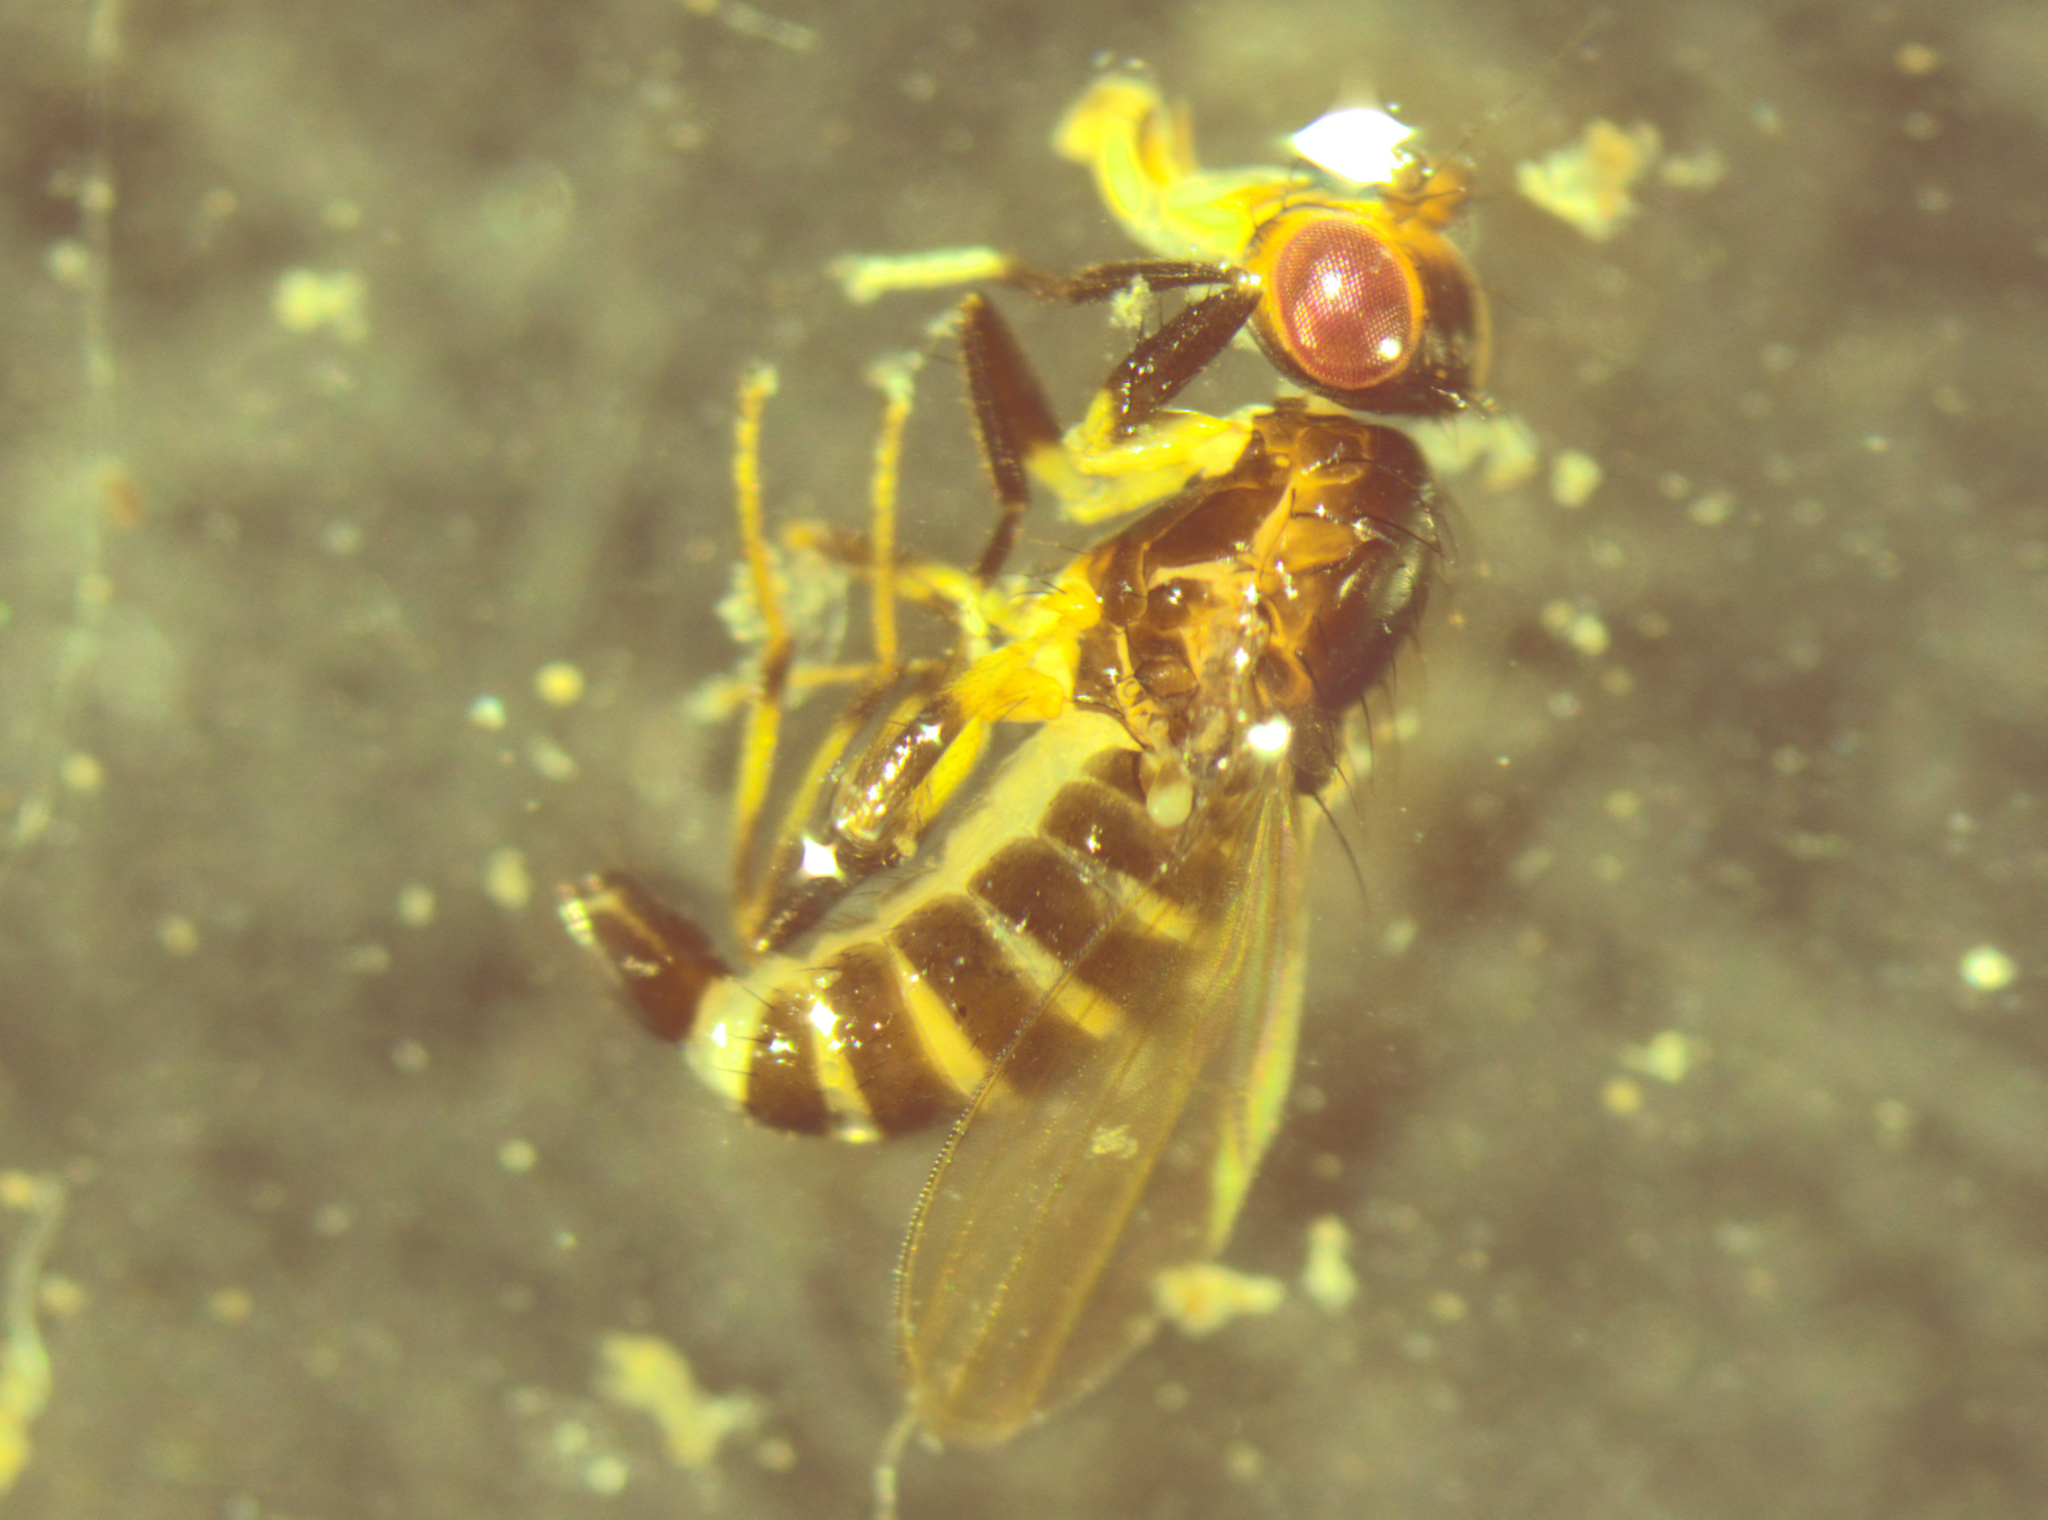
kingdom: Animalia
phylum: Arthropoda
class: Insecta
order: Diptera
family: Cypselosomatidae
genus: Pseudopomyza
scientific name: Pseudopomyza flavitarsis
